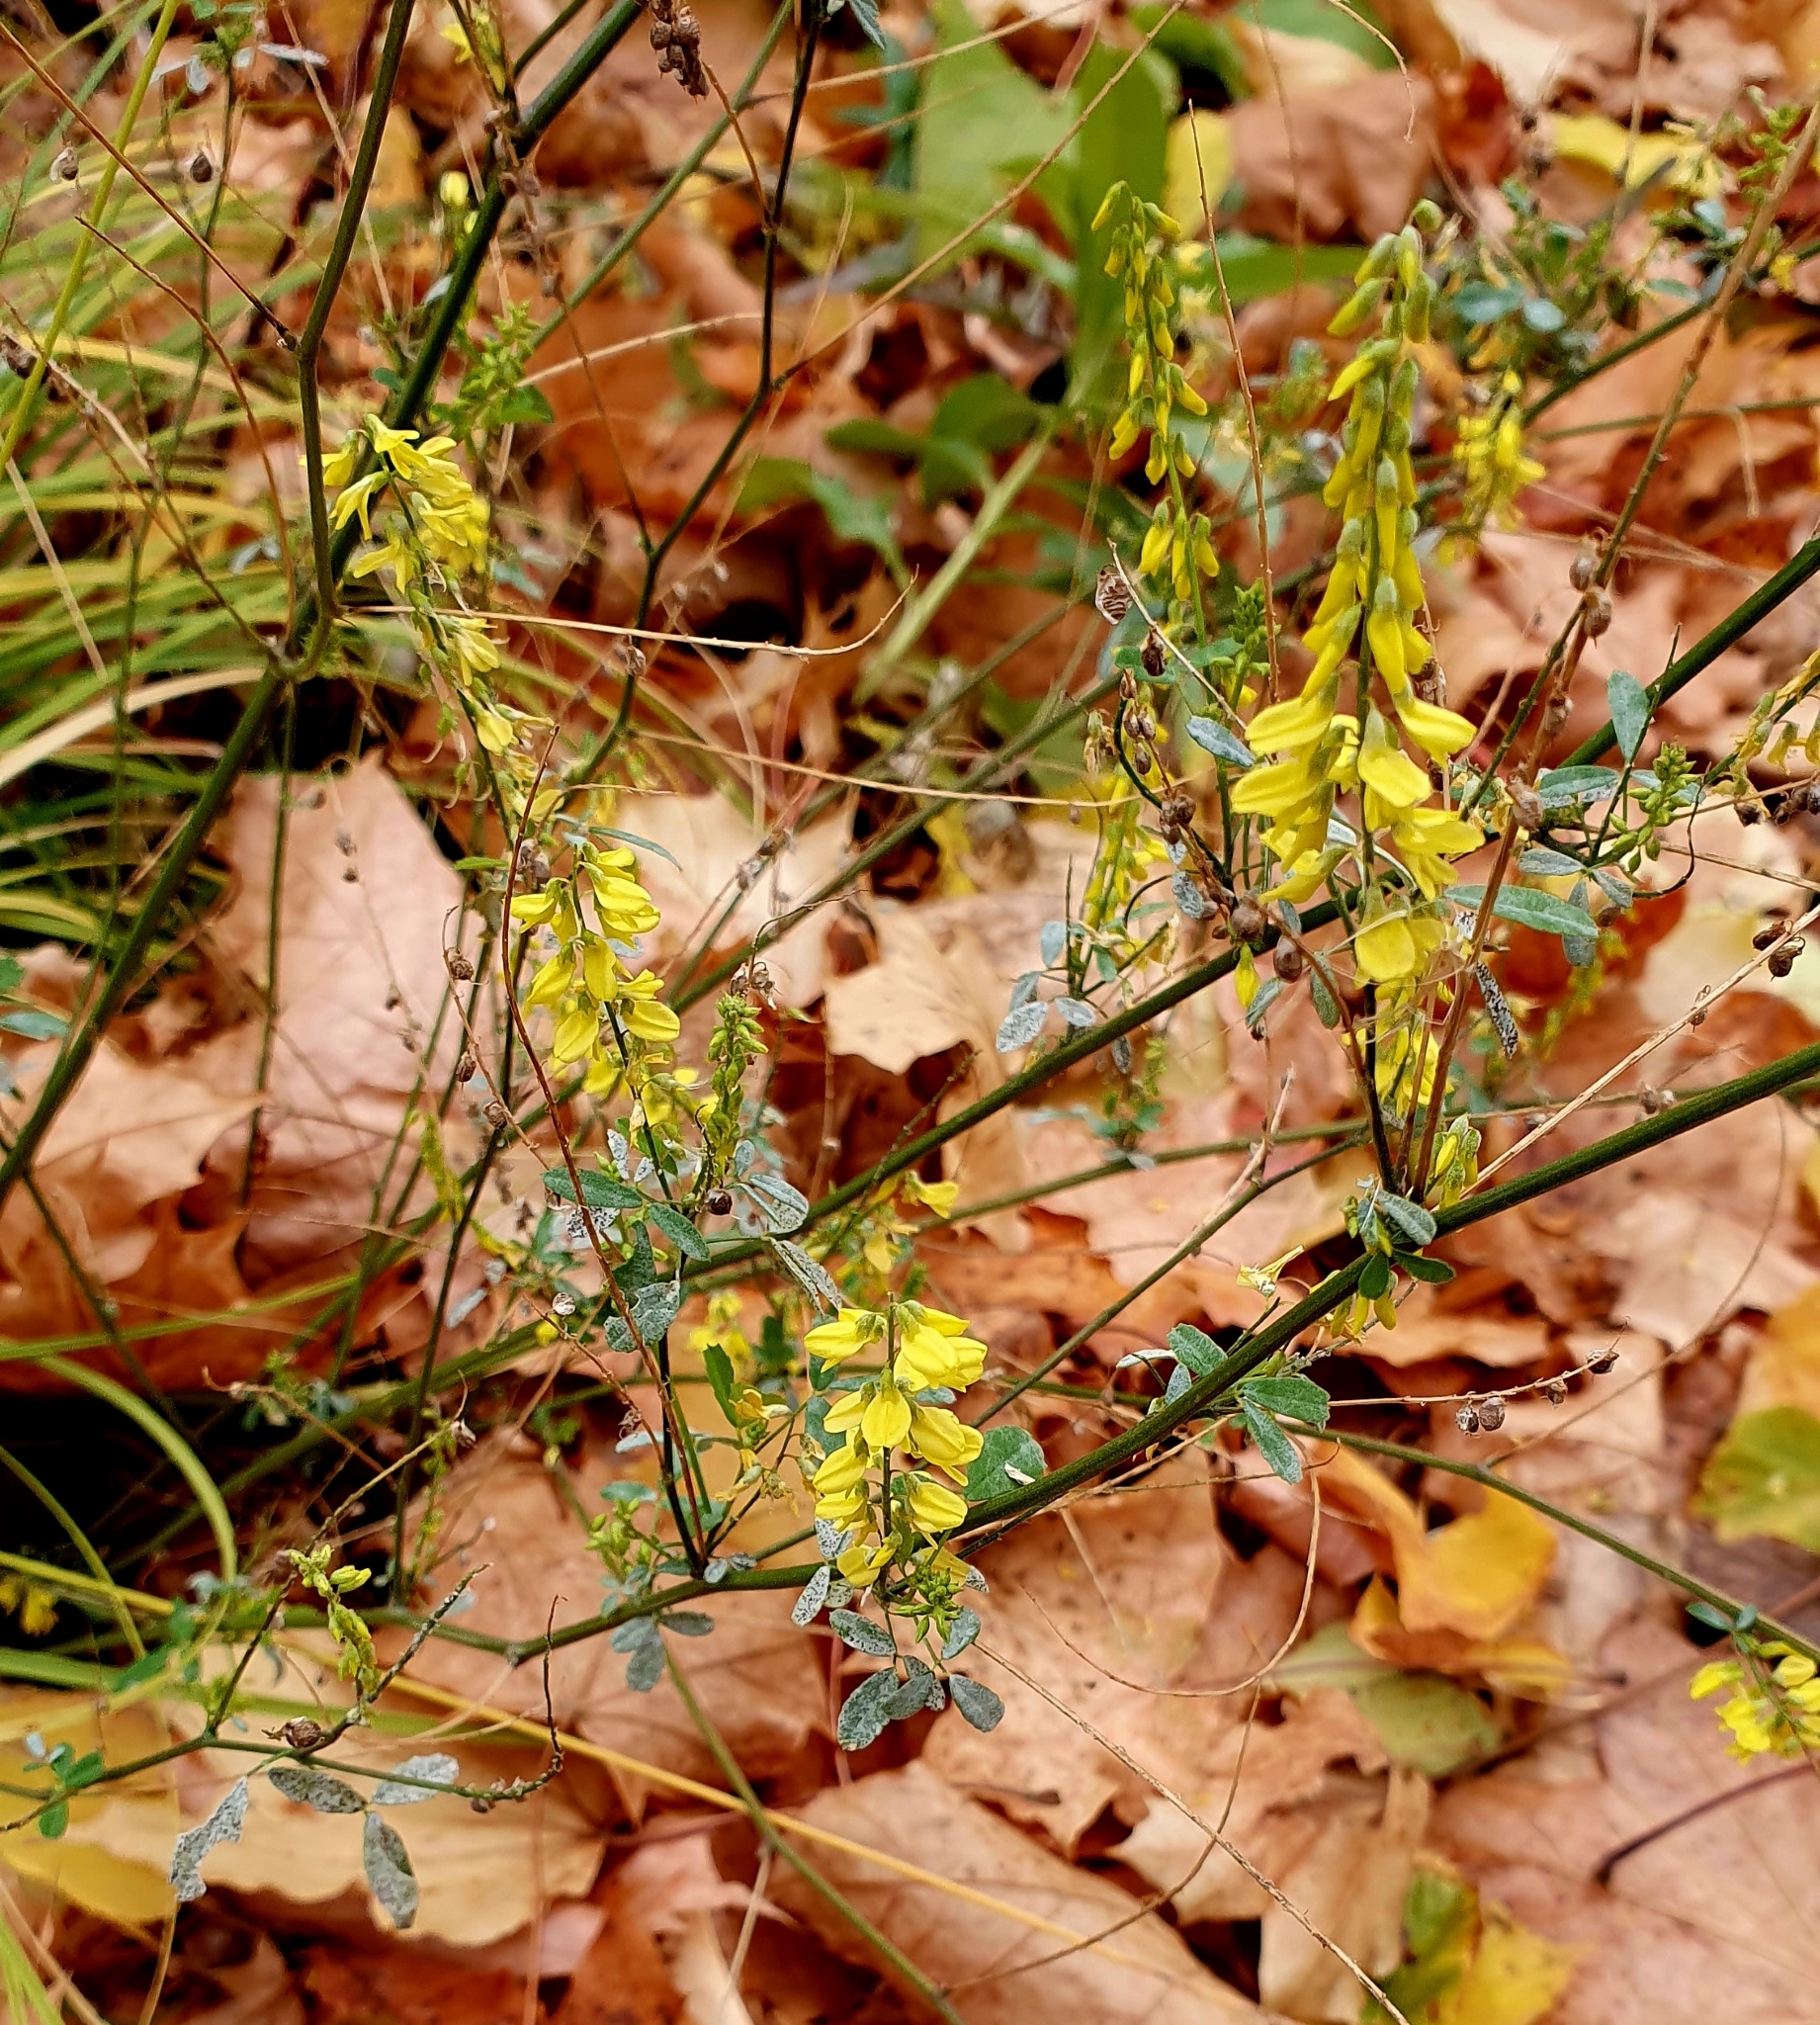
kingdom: Plantae
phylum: Tracheophyta
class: Magnoliopsida
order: Fabales
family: Fabaceae
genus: Melilotus
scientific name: Melilotus officinalis
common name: Sweetclover
